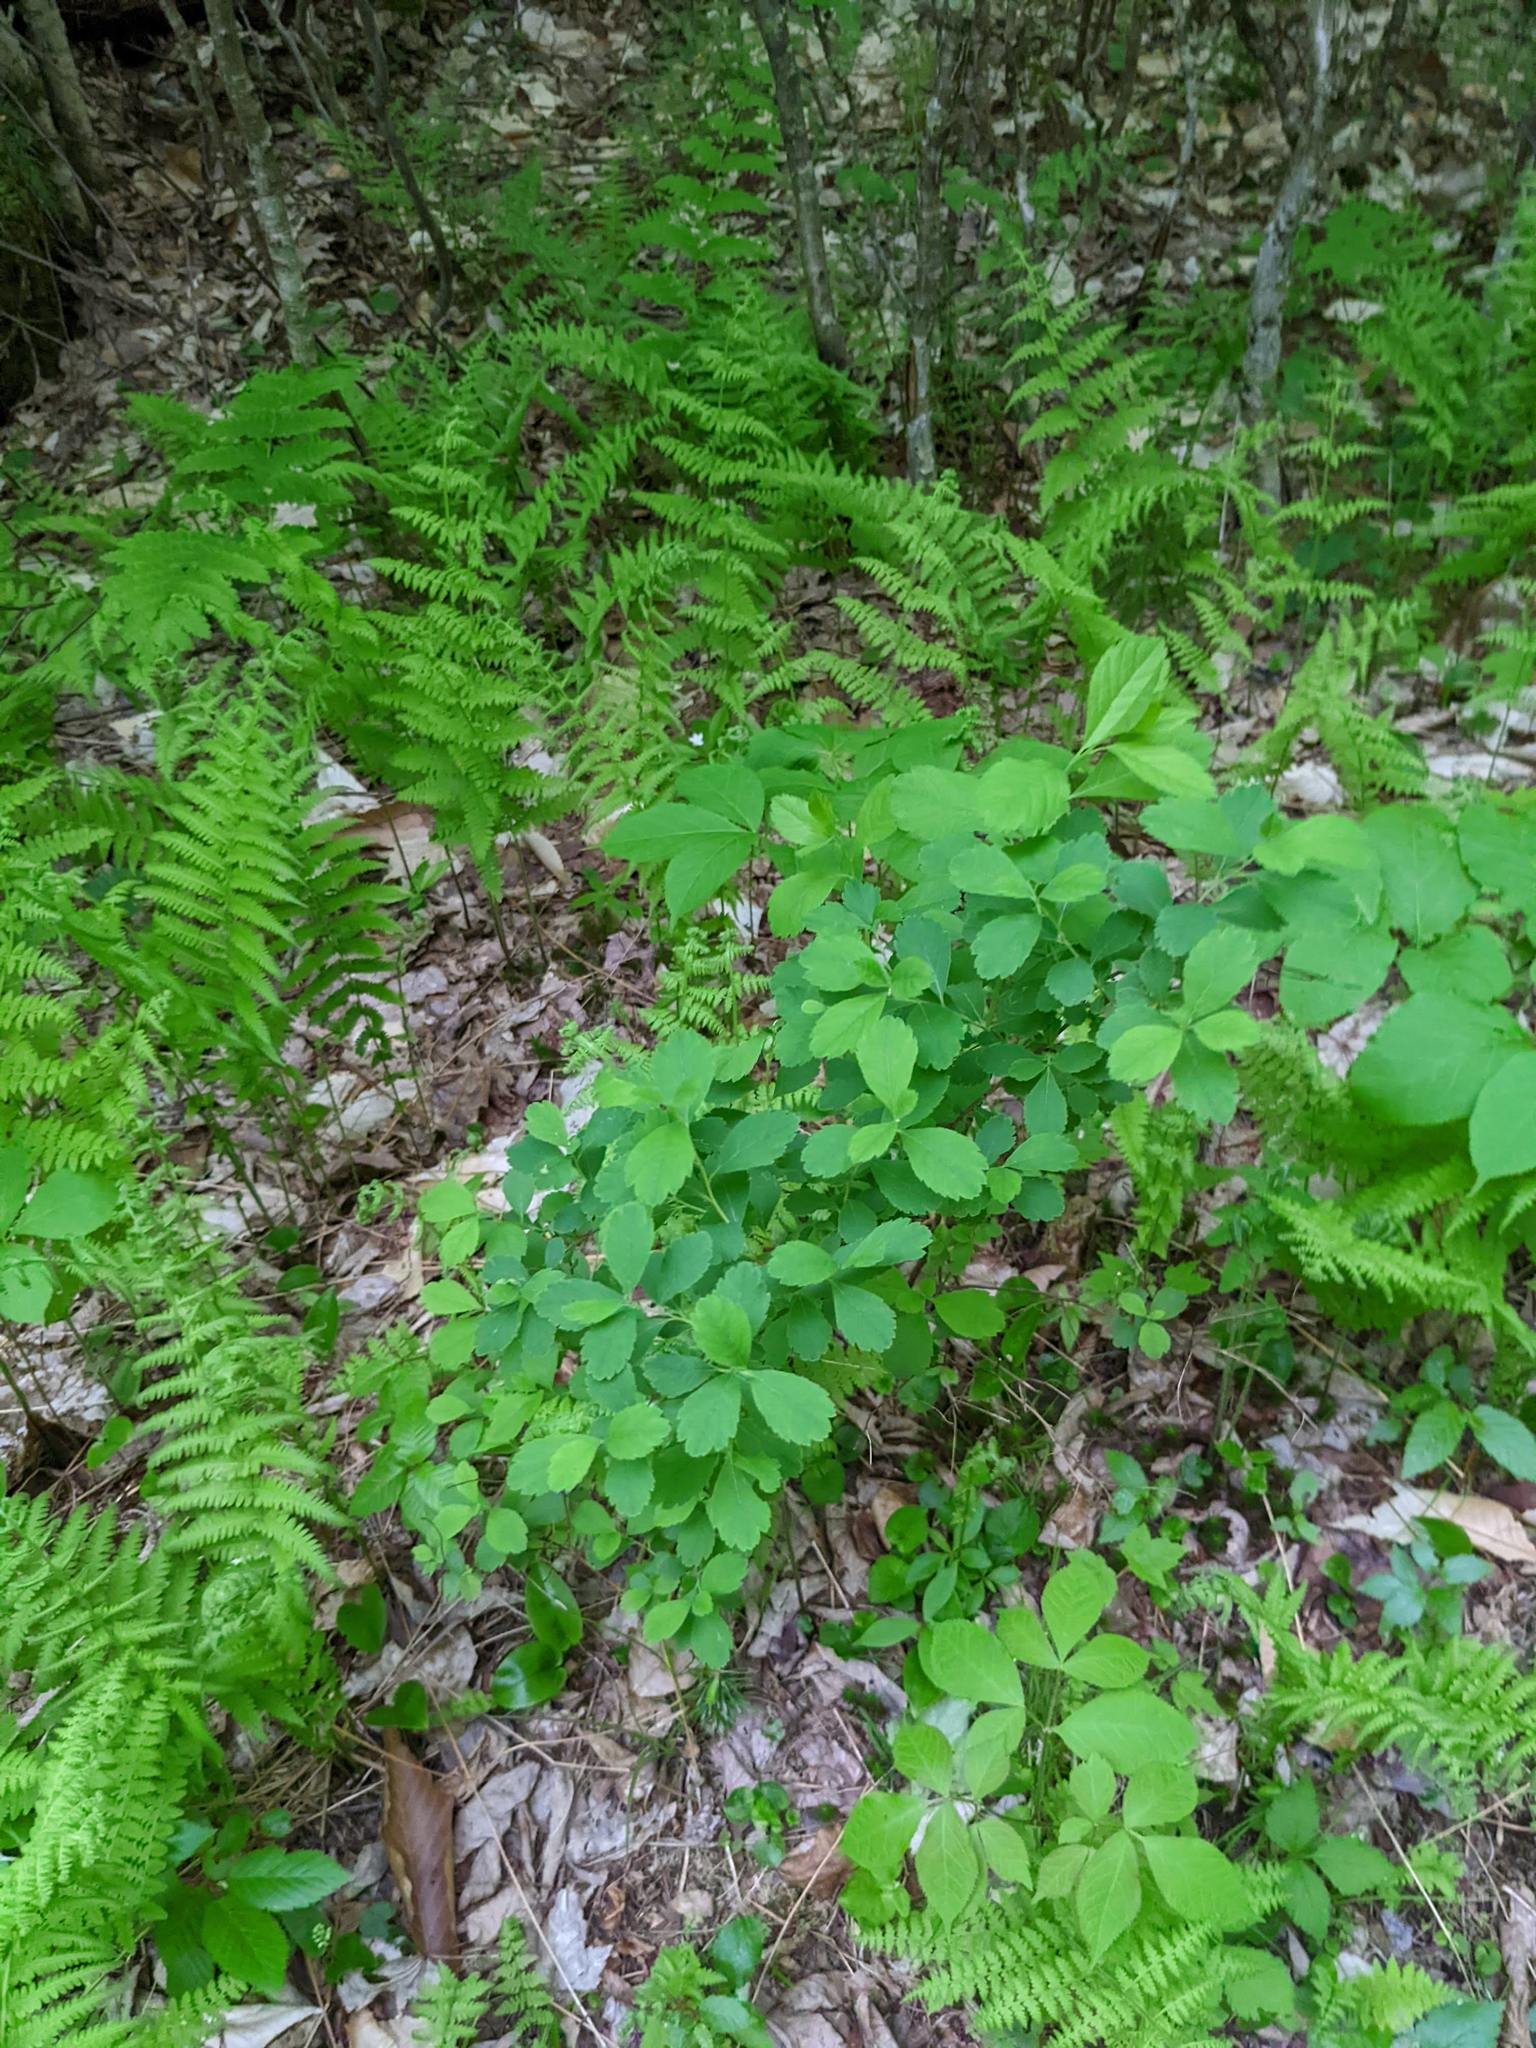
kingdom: Plantae
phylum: Tracheophyta
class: Magnoliopsida
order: Rosales
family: Rosaceae
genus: Spiraea
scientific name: Spiraea alba
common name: Pale bridewort
